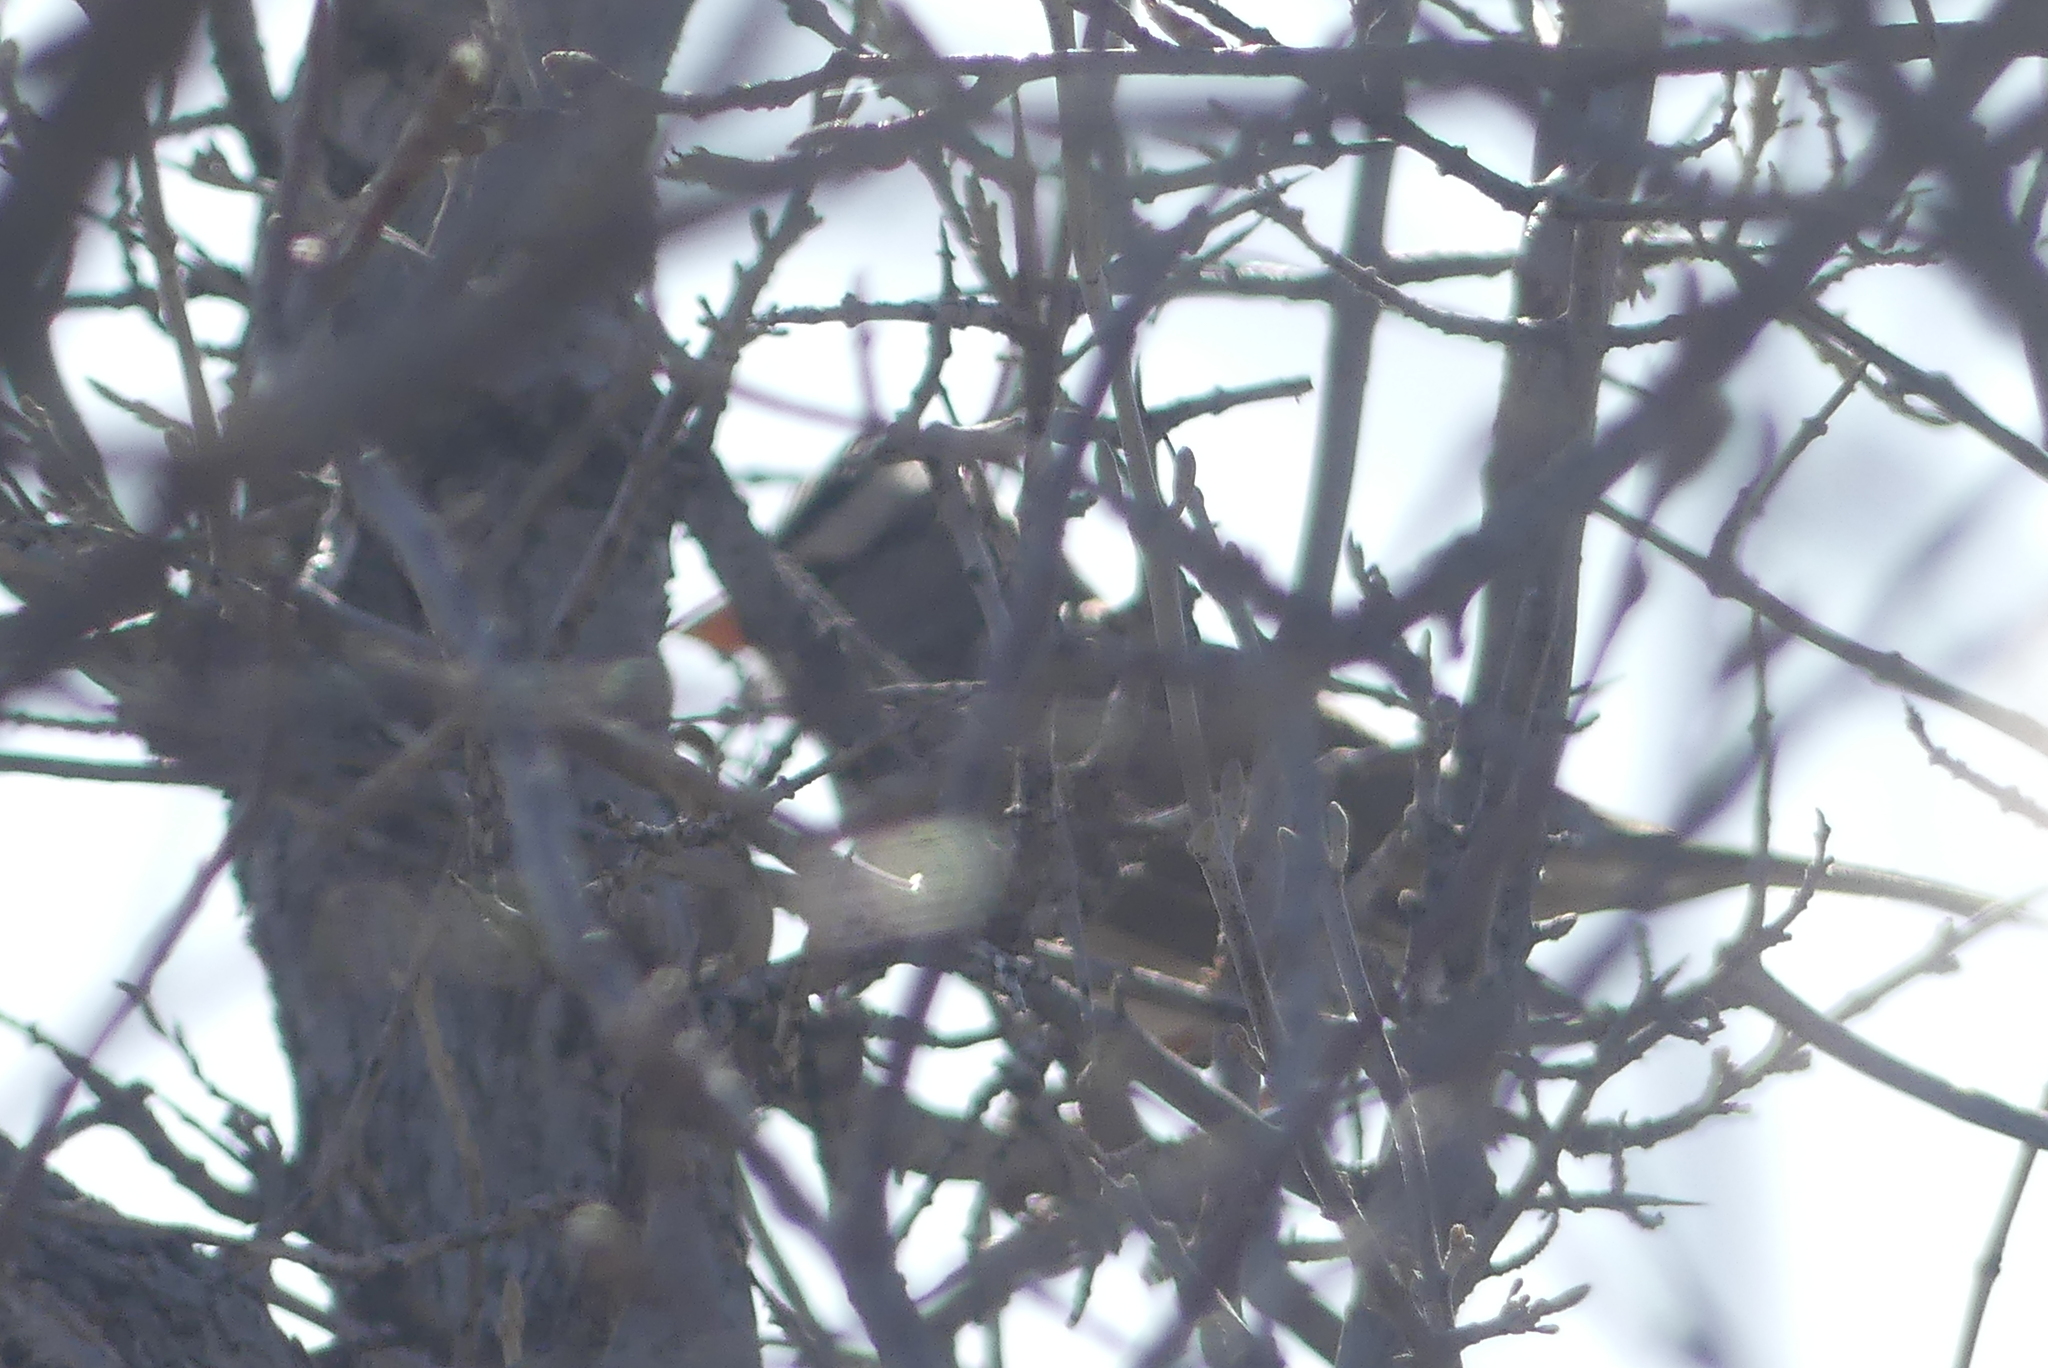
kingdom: Animalia
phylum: Chordata
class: Aves
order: Passeriformes
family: Passerellidae
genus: Zonotrichia
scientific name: Zonotrichia leucophrys
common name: White-crowned sparrow
